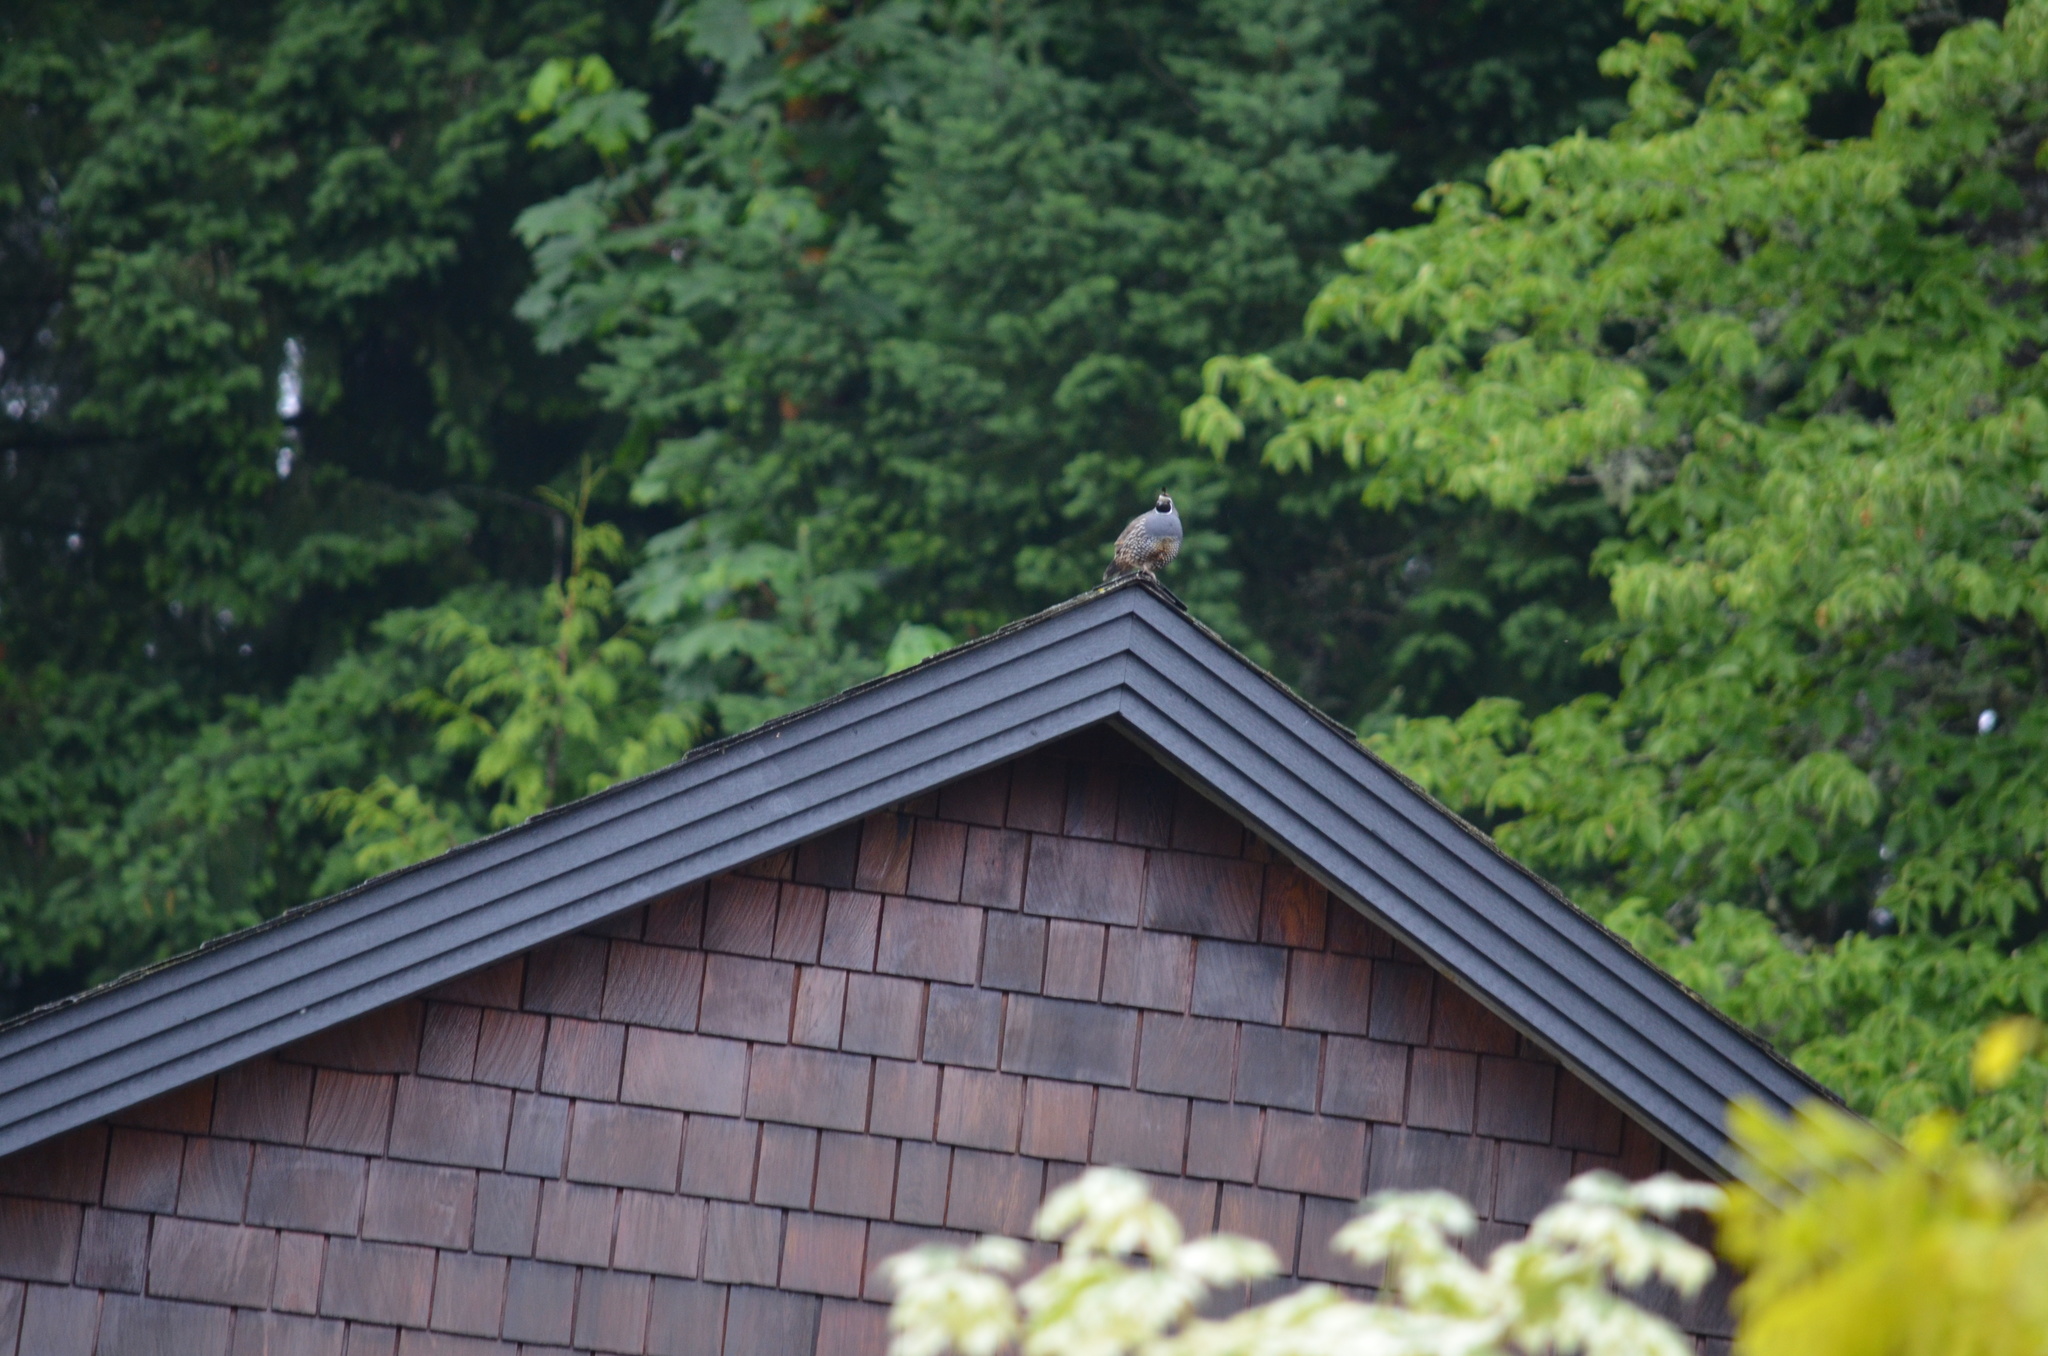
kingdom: Animalia
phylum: Chordata
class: Aves
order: Galliformes
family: Odontophoridae
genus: Callipepla
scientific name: Callipepla californica
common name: California quail
